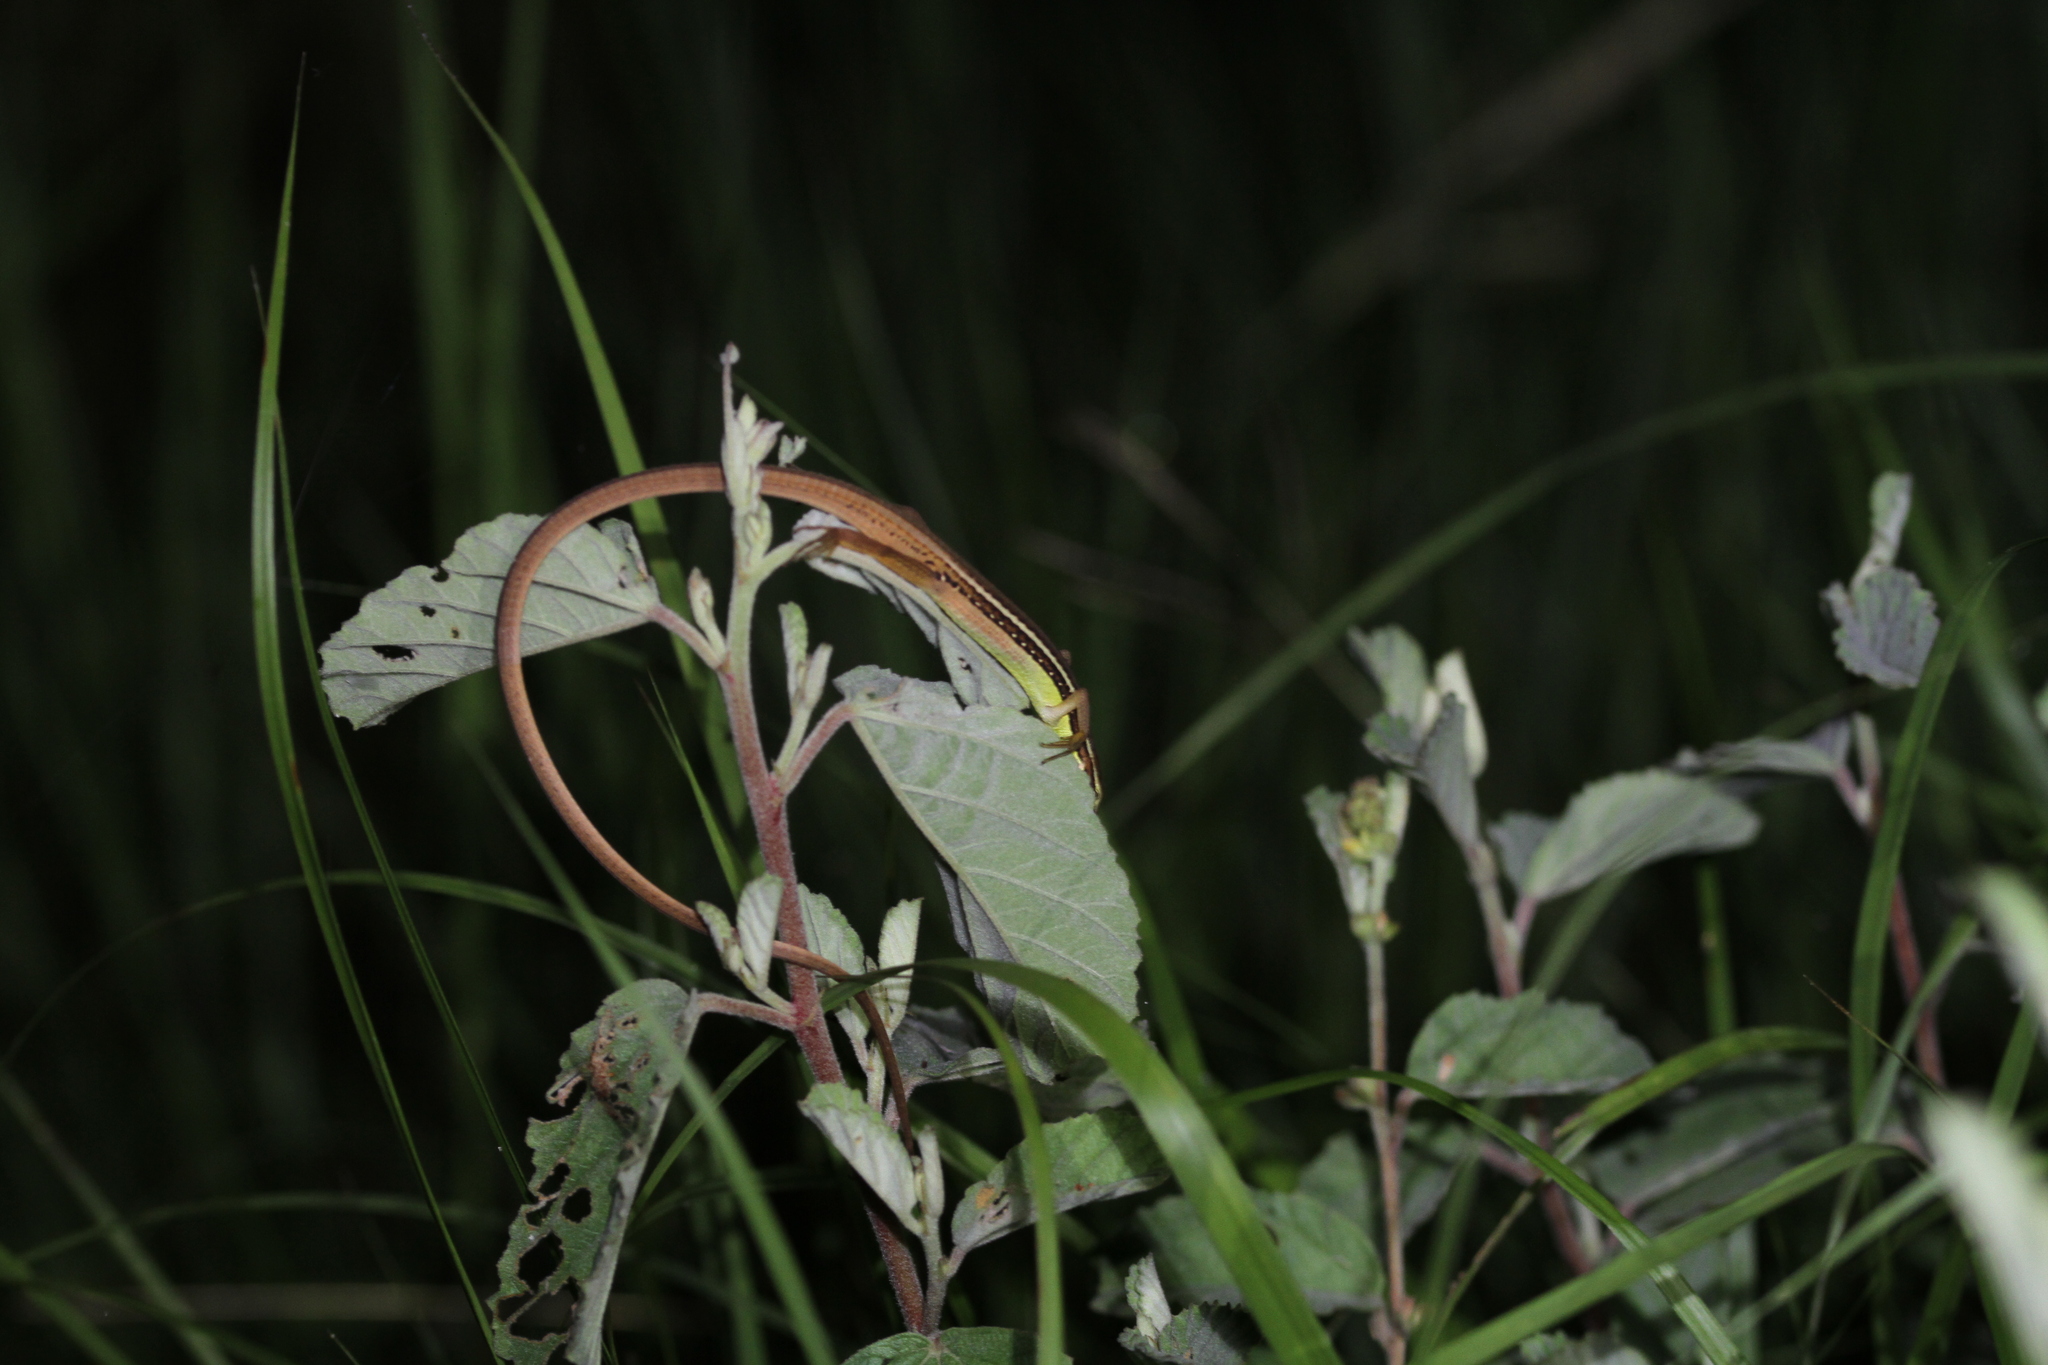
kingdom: Animalia
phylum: Chordata
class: Squamata
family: Lacertidae
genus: Takydromus
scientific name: Takydromus sexlineatus
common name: Asian grass lizard
